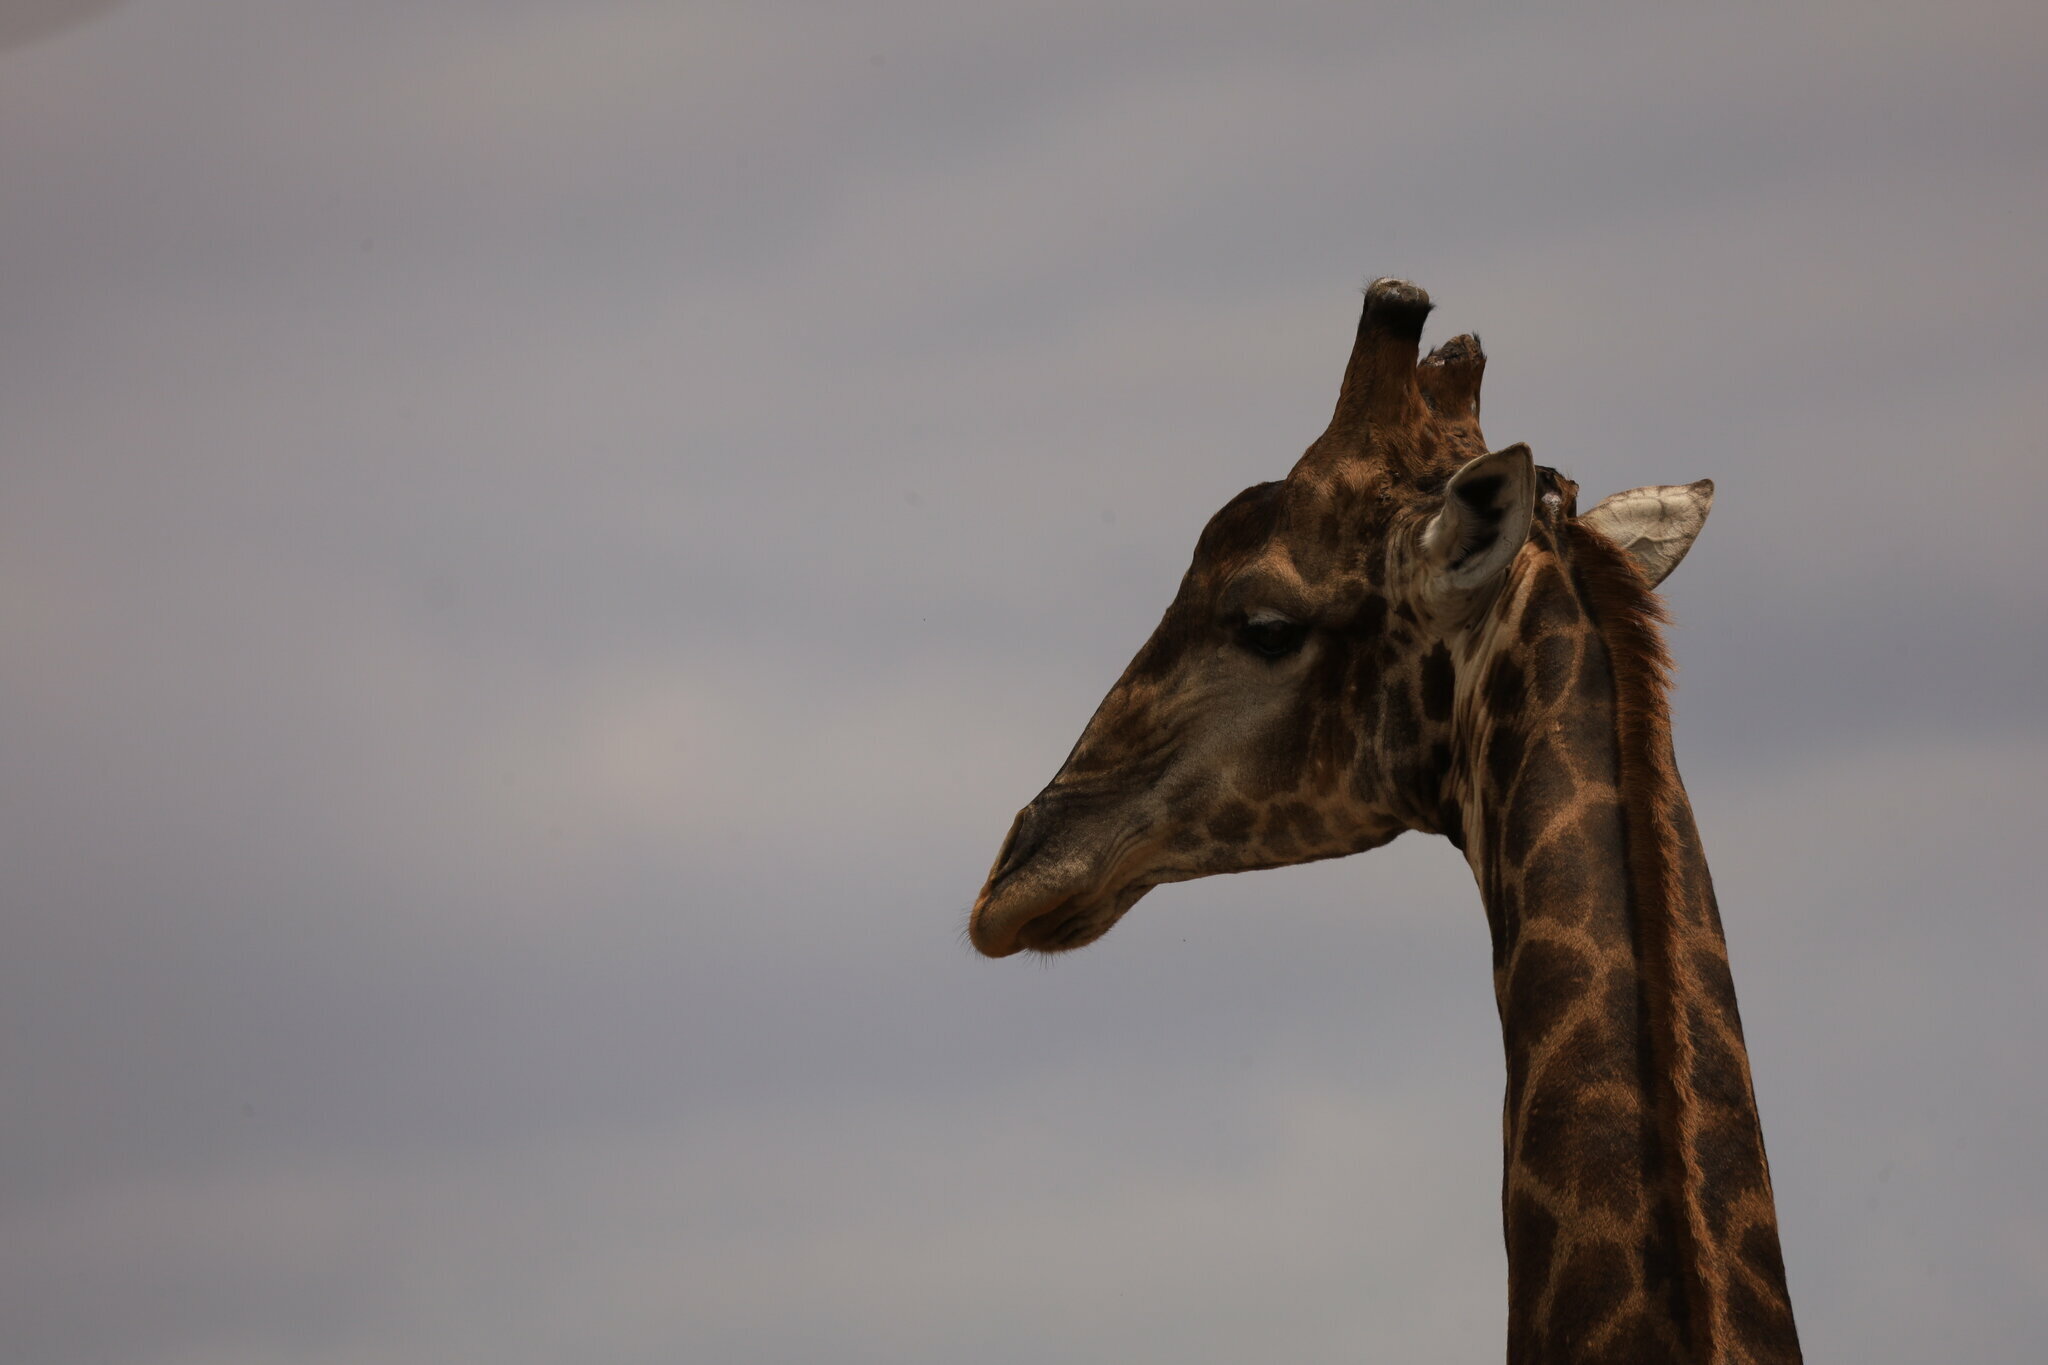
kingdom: Animalia
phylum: Chordata
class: Mammalia
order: Artiodactyla
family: Giraffidae
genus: Giraffa
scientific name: Giraffa giraffa
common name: Southern giraffe
